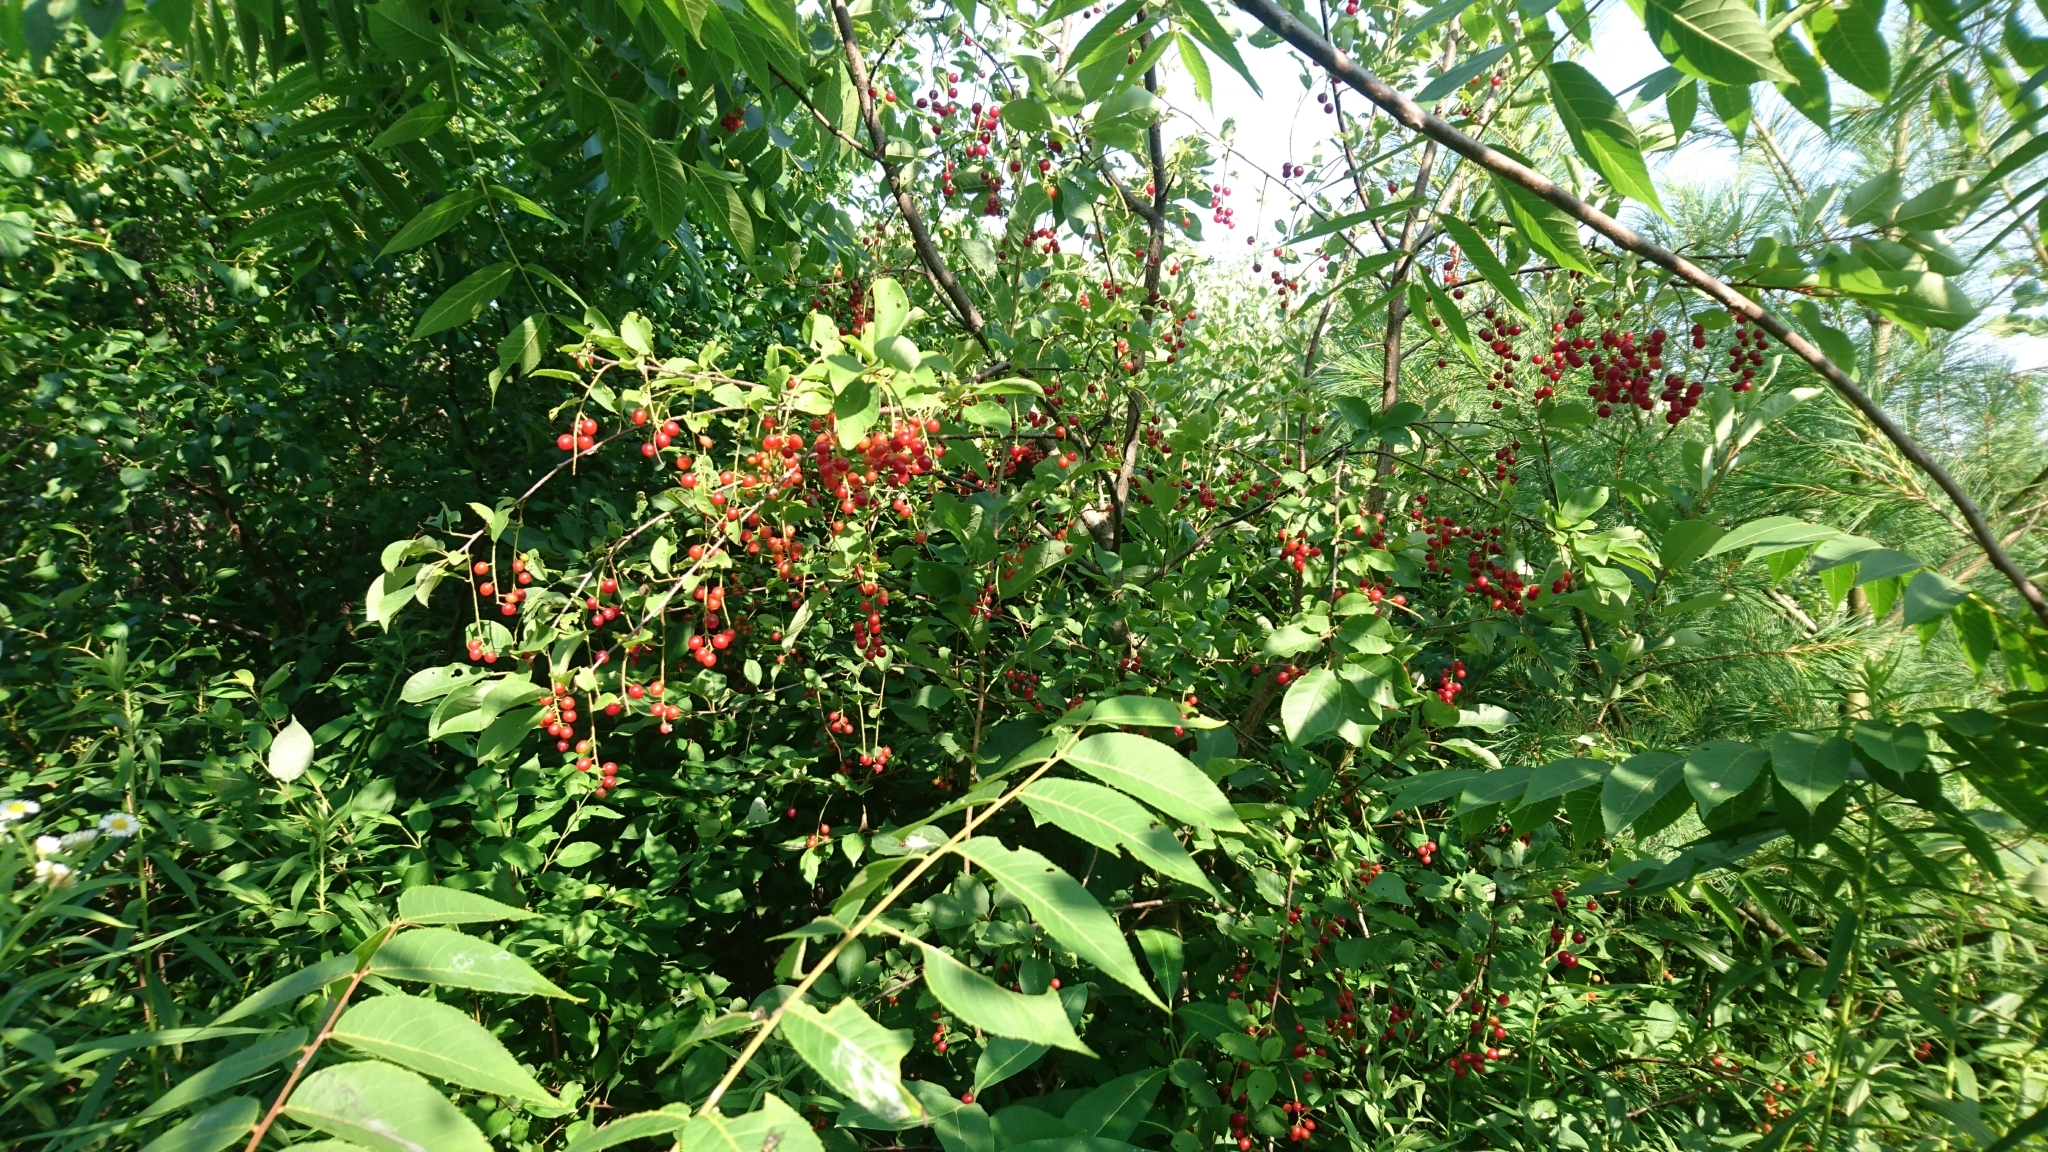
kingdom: Plantae
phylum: Tracheophyta
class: Magnoliopsida
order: Rosales
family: Rosaceae
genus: Prunus
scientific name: Prunus virginiana
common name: Chokecherry
